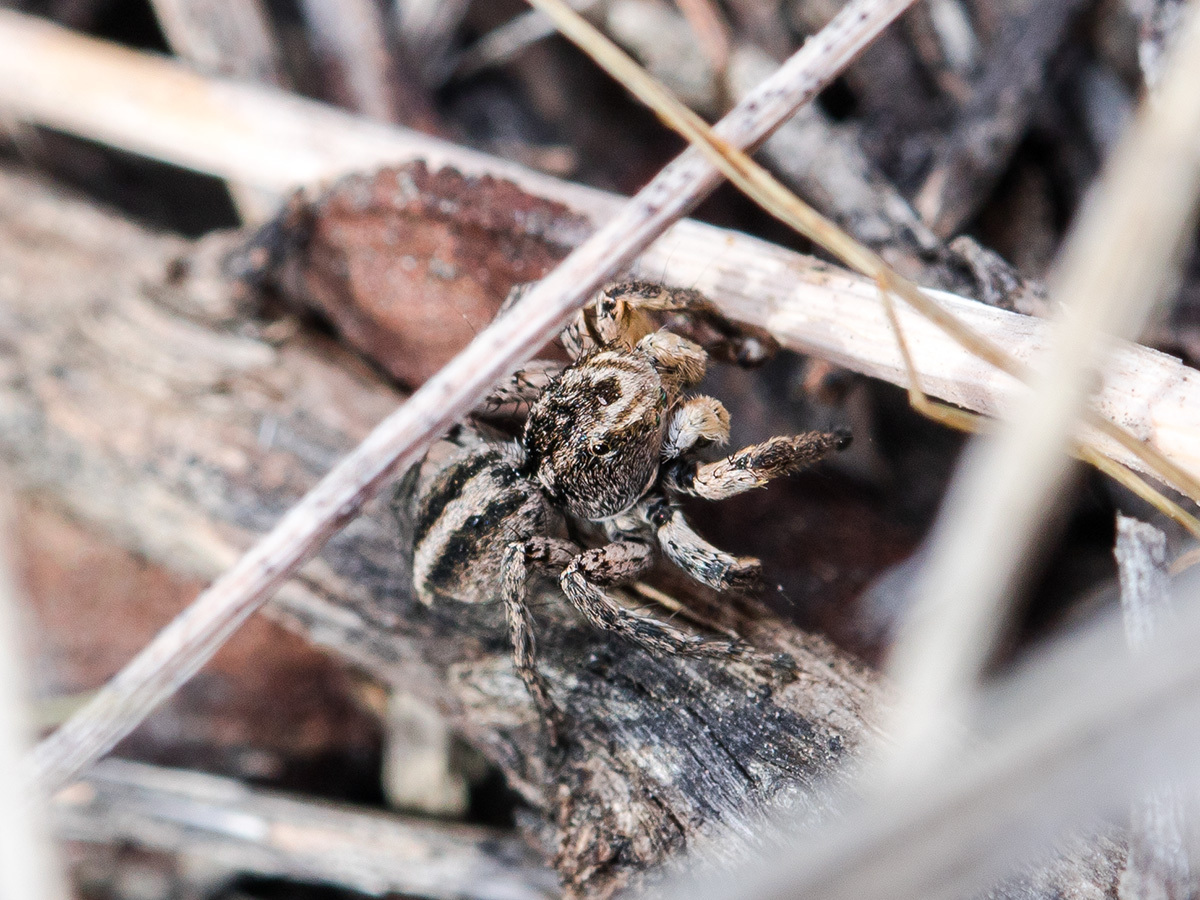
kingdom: Animalia
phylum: Arthropoda
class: Arachnida
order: Araneae
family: Salticidae
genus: Aelurillus
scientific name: Aelurillus v-insignitus
